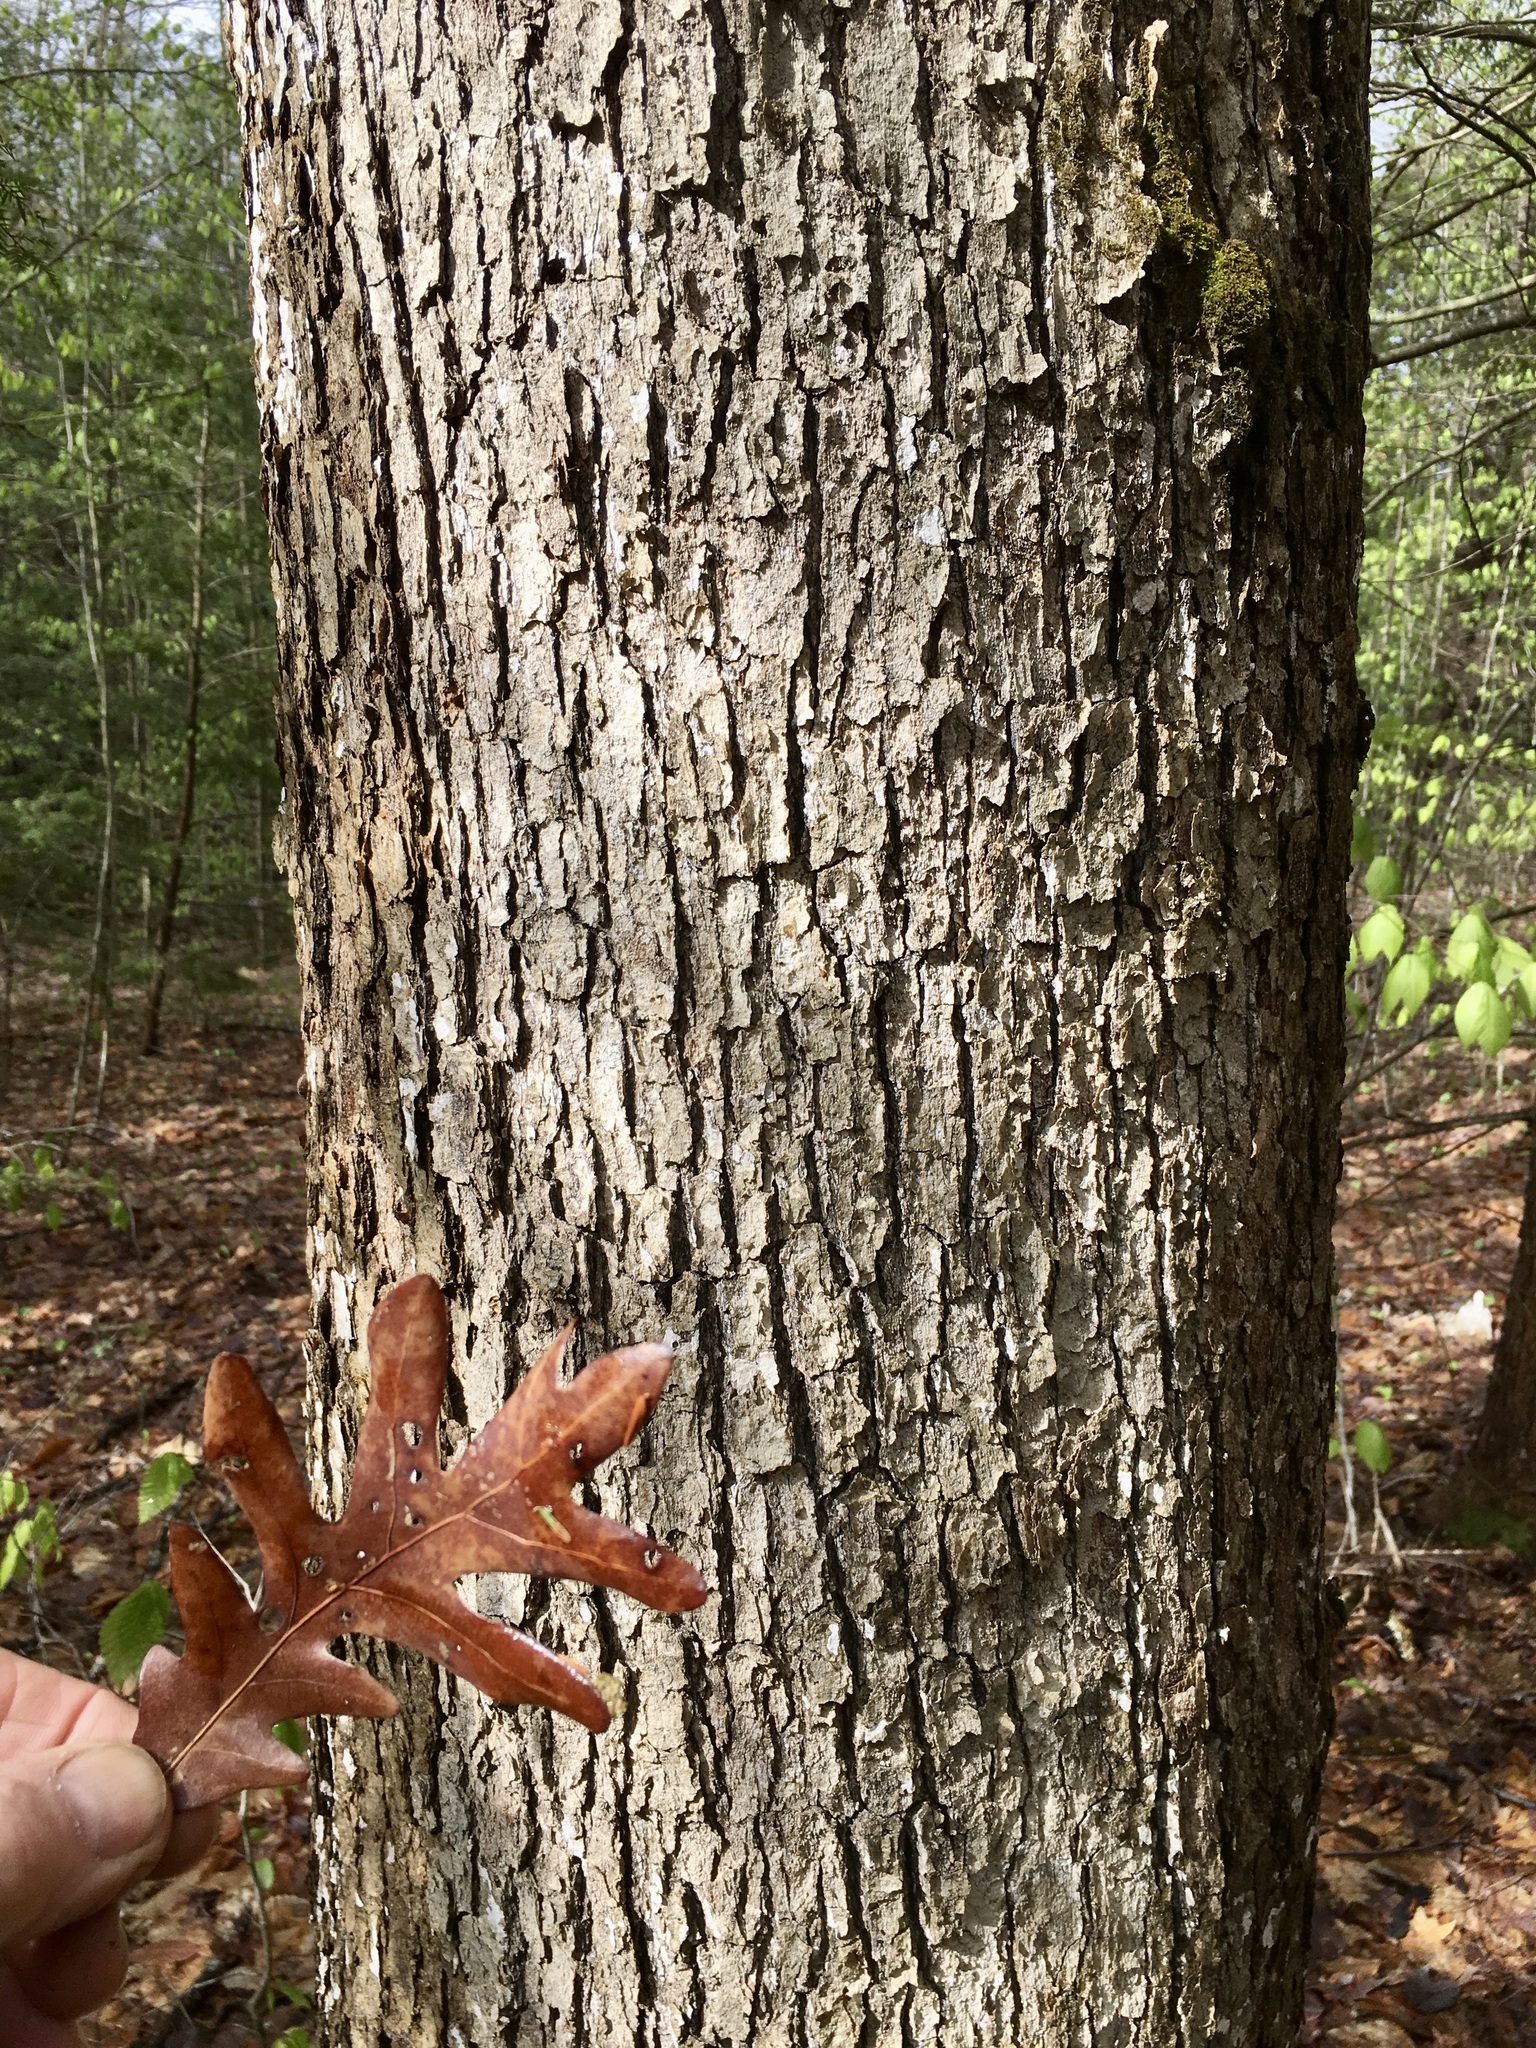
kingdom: Plantae
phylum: Tracheophyta
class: Magnoliopsida
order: Fagales
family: Fagaceae
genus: Quercus
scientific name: Quercus alba
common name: White oak
